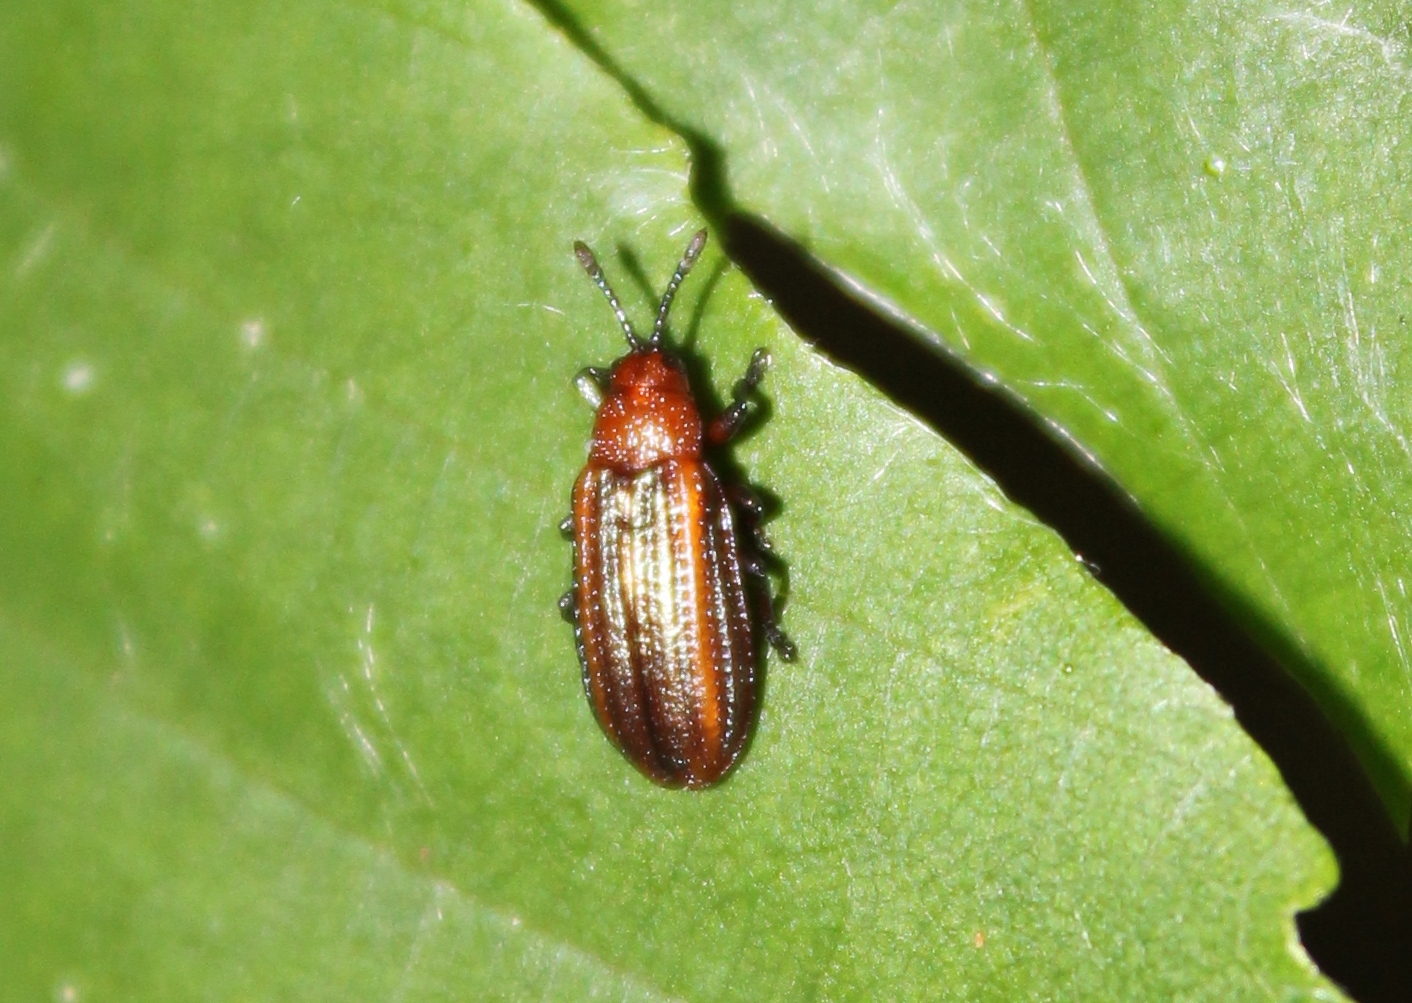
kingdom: Animalia
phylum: Arthropoda
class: Insecta
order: Coleoptera
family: Chrysomelidae
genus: Microrhopala
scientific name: Microrhopala vittata
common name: Goldenrod leaf miner beetle
